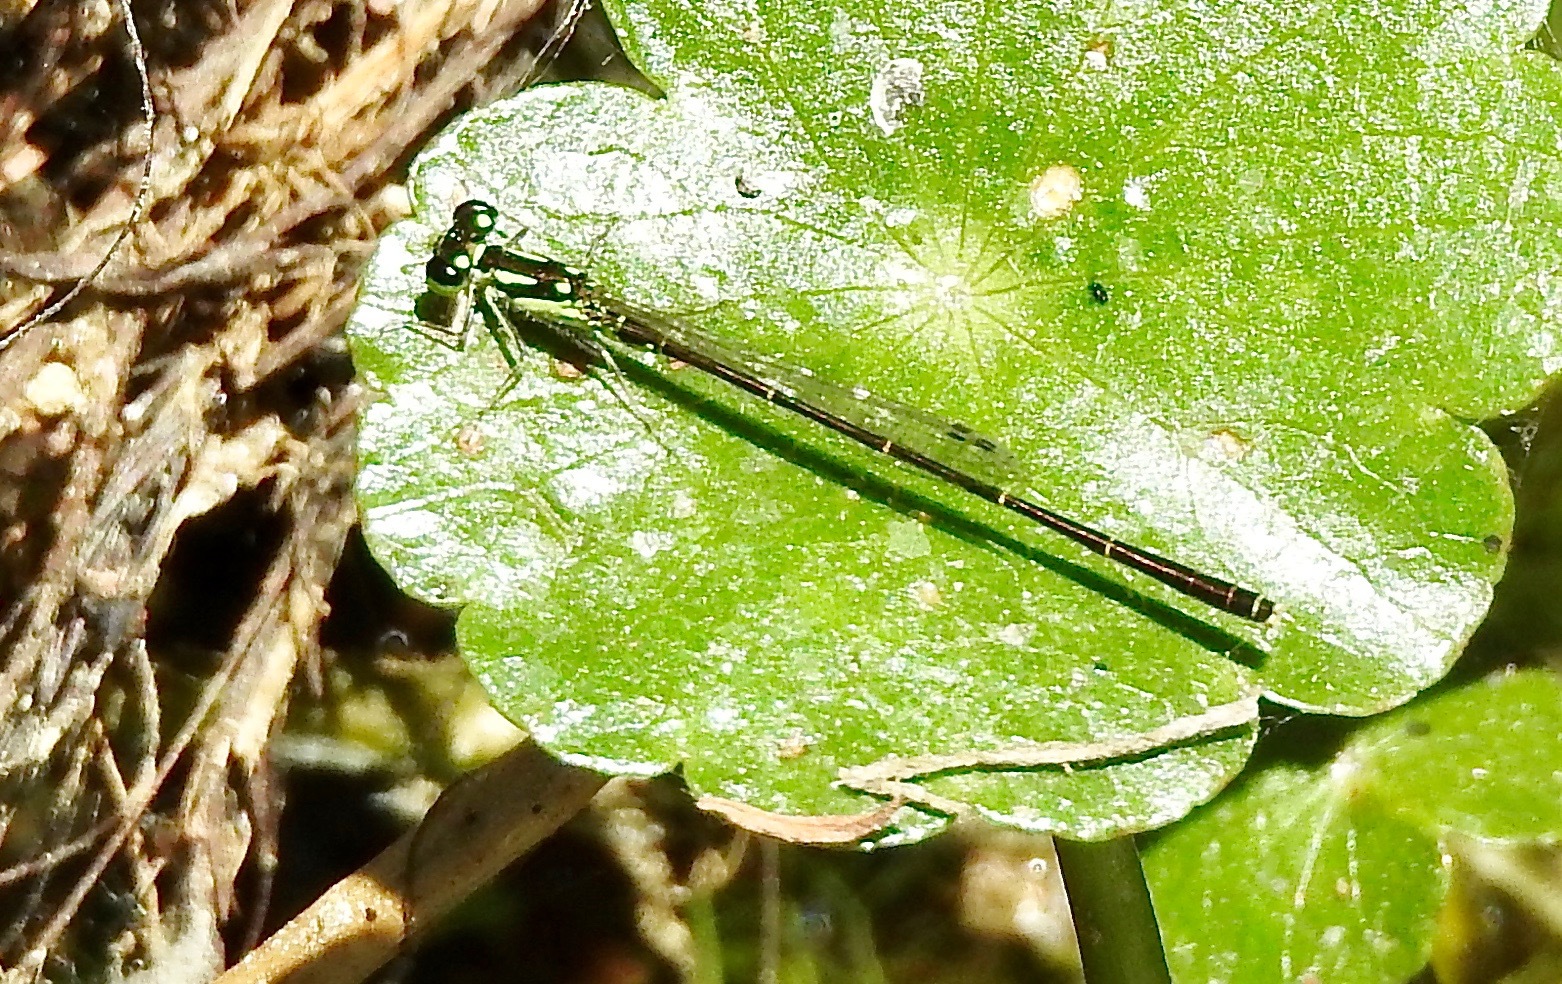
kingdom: Animalia
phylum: Arthropoda
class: Insecta
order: Odonata
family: Coenagrionidae
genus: Ischnura
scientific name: Ischnura posita
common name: Fragile forktail
